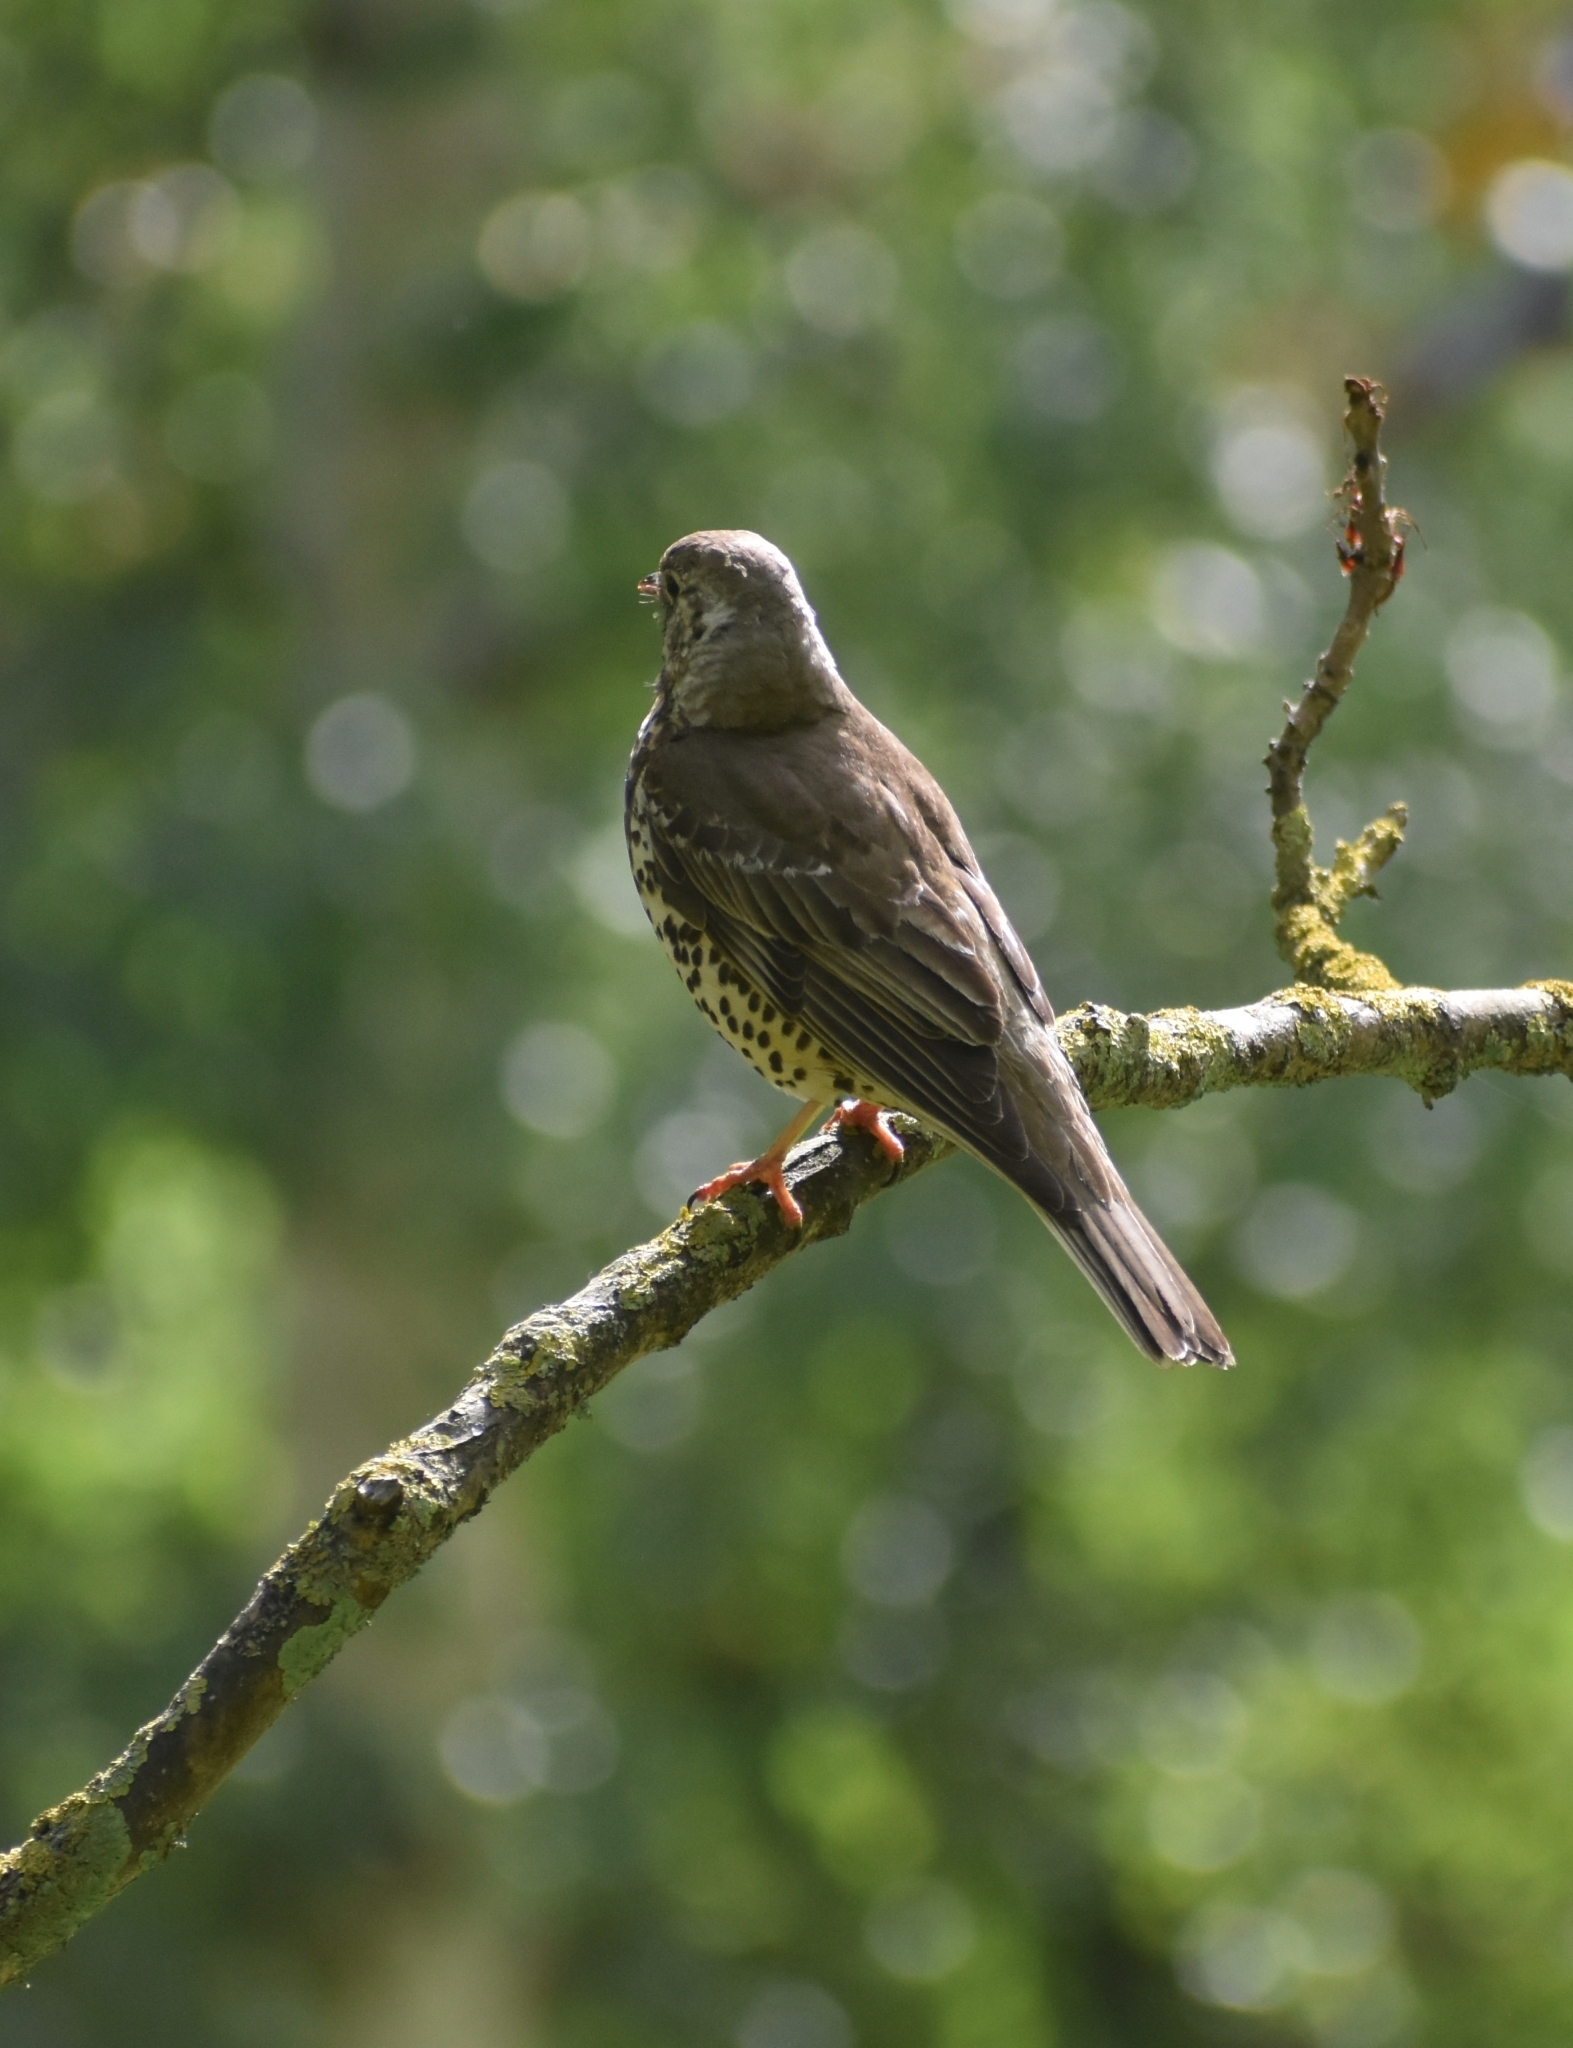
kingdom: Animalia
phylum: Chordata
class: Aves
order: Passeriformes
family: Turdidae
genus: Turdus
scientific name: Turdus viscivorus
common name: Mistle thrush
